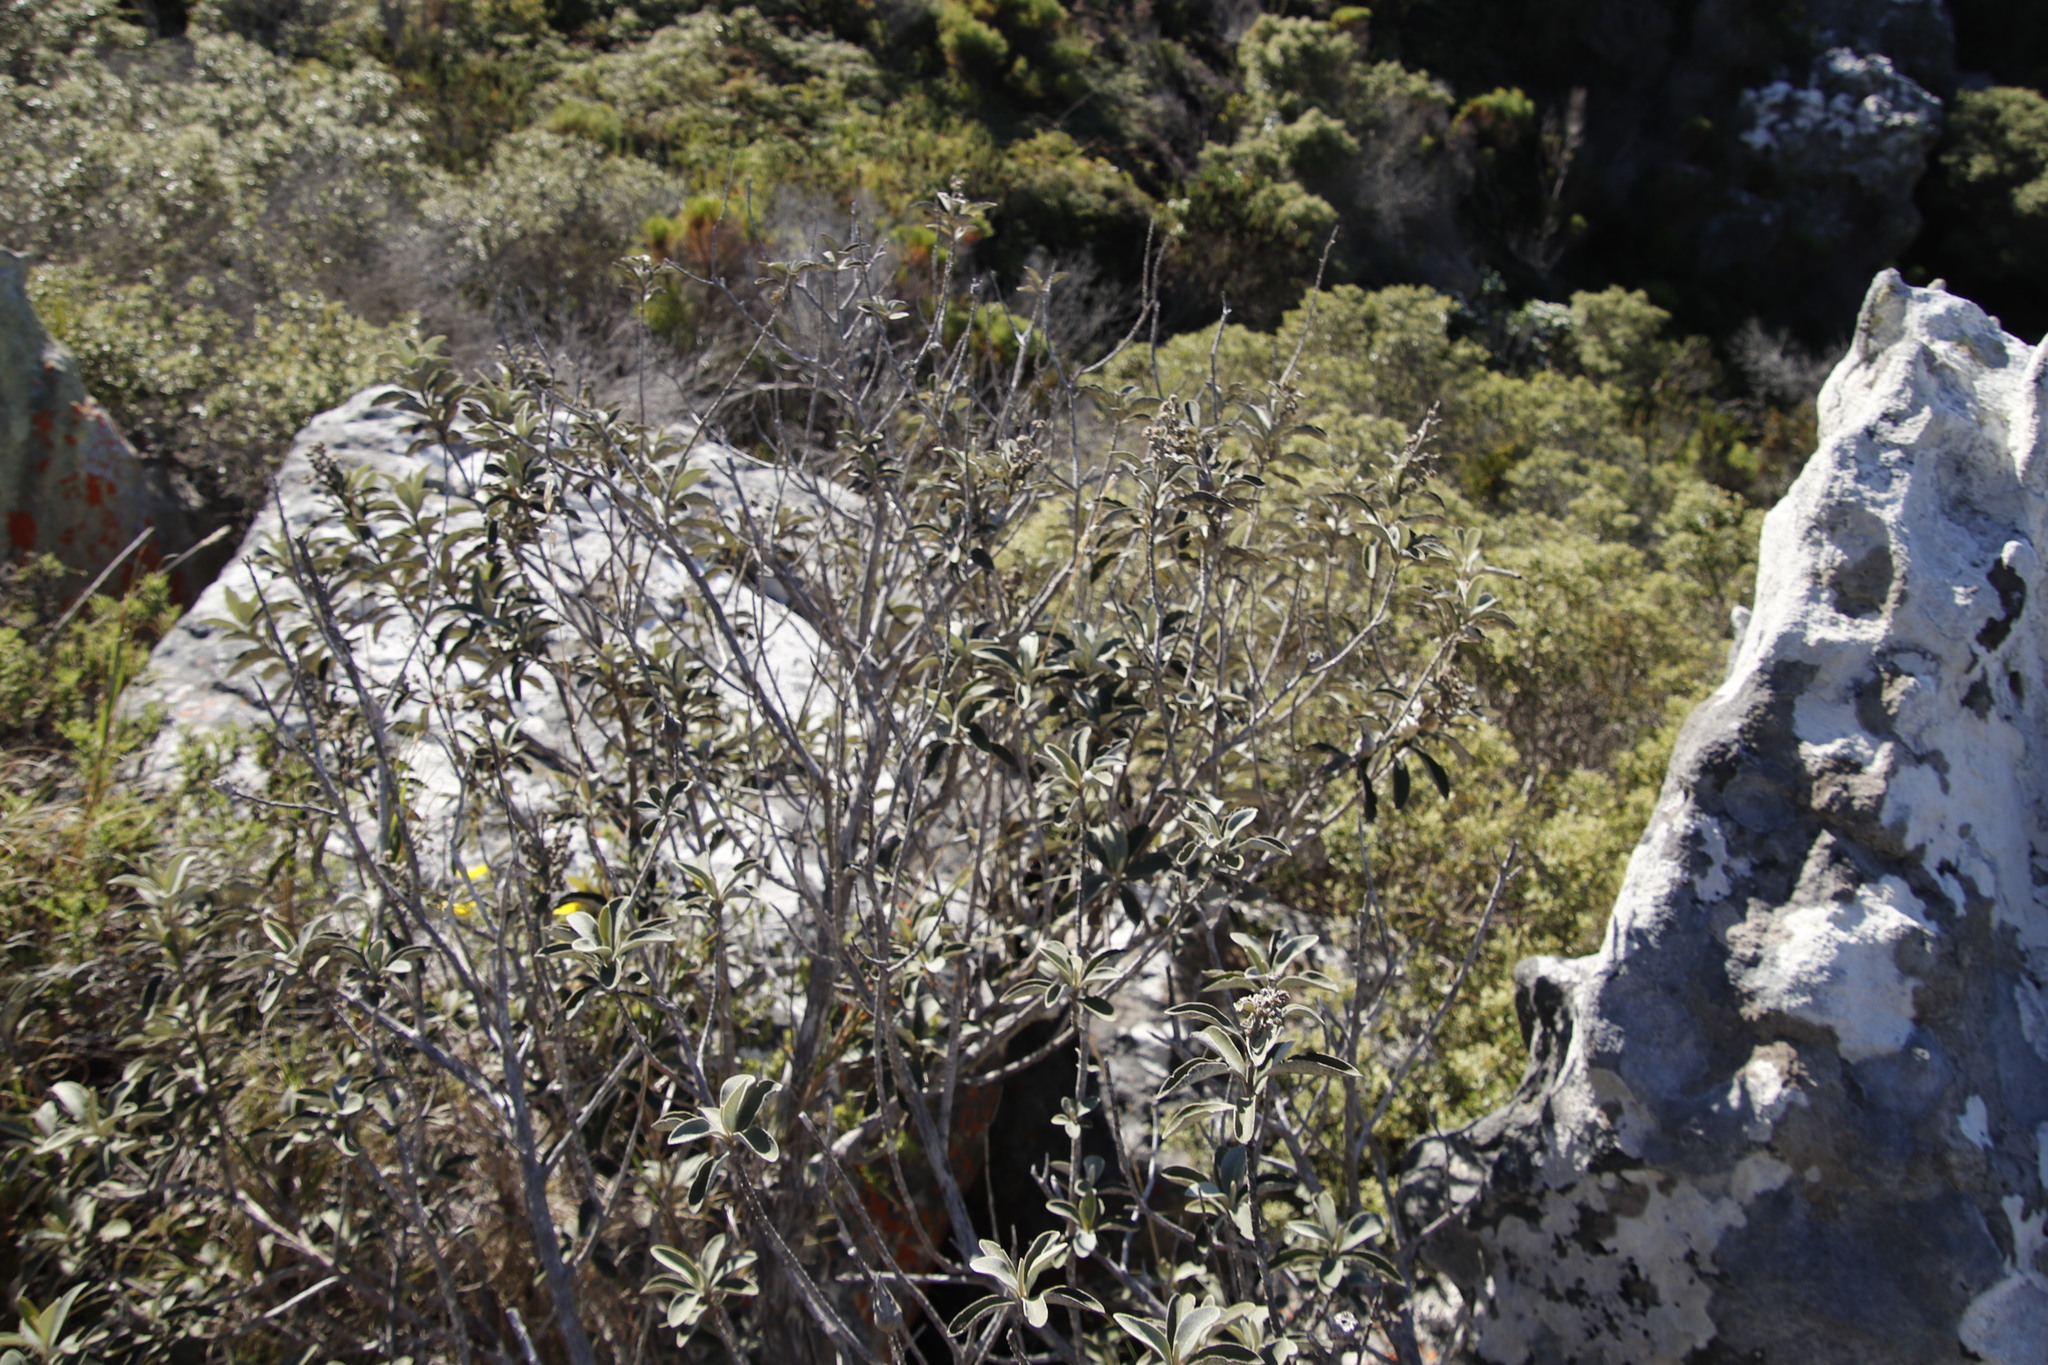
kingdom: Plantae
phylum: Tracheophyta
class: Magnoliopsida
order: Asterales
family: Asteraceae
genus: Tarchonanthus
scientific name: Tarchonanthus littoralis
